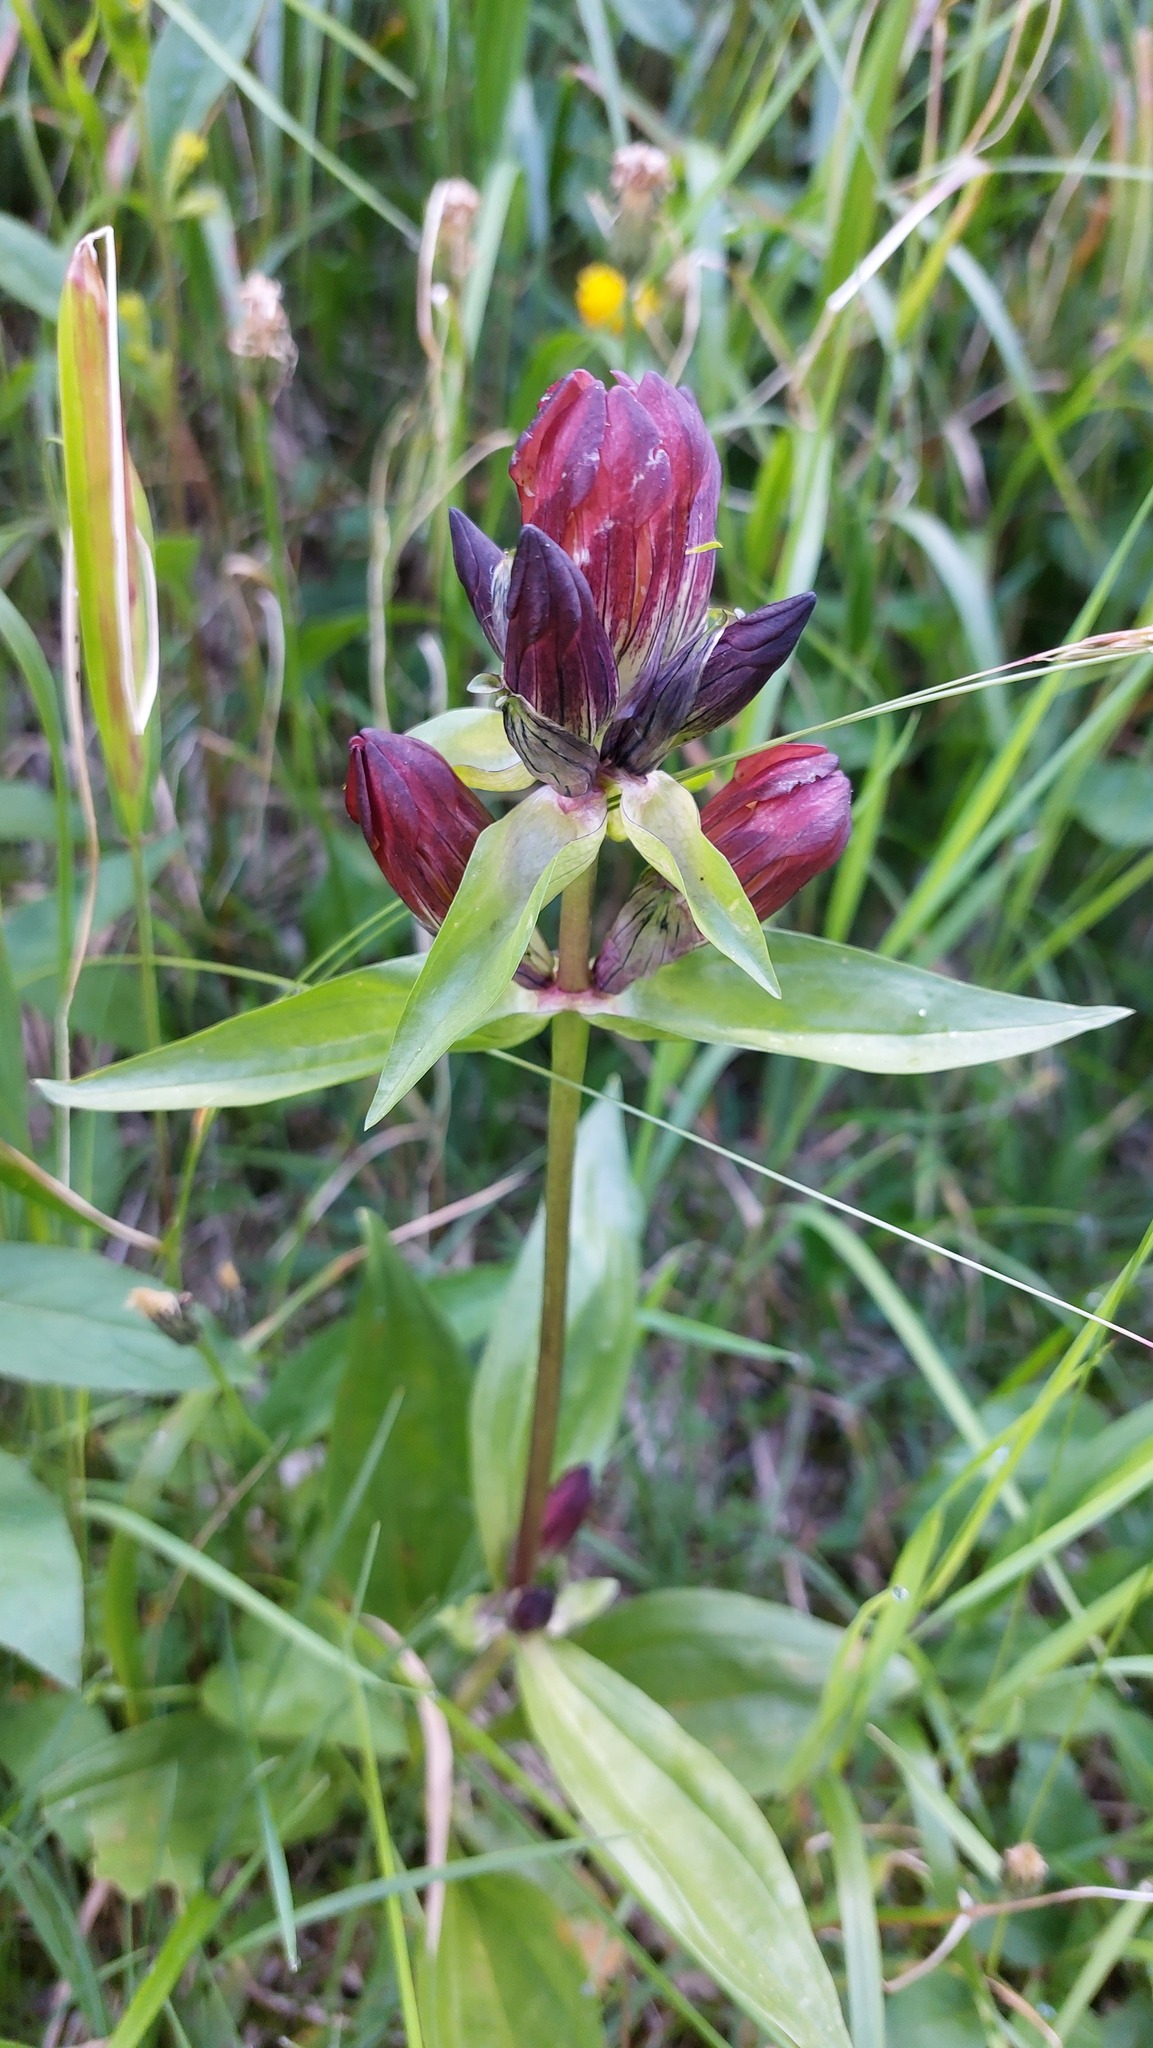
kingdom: Plantae
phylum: Tracheophyta
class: Magnoliopsida
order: Gentianales
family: Gentianaceae
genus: Gentiana
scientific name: Gentiana purpurea
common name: Purple gentian
